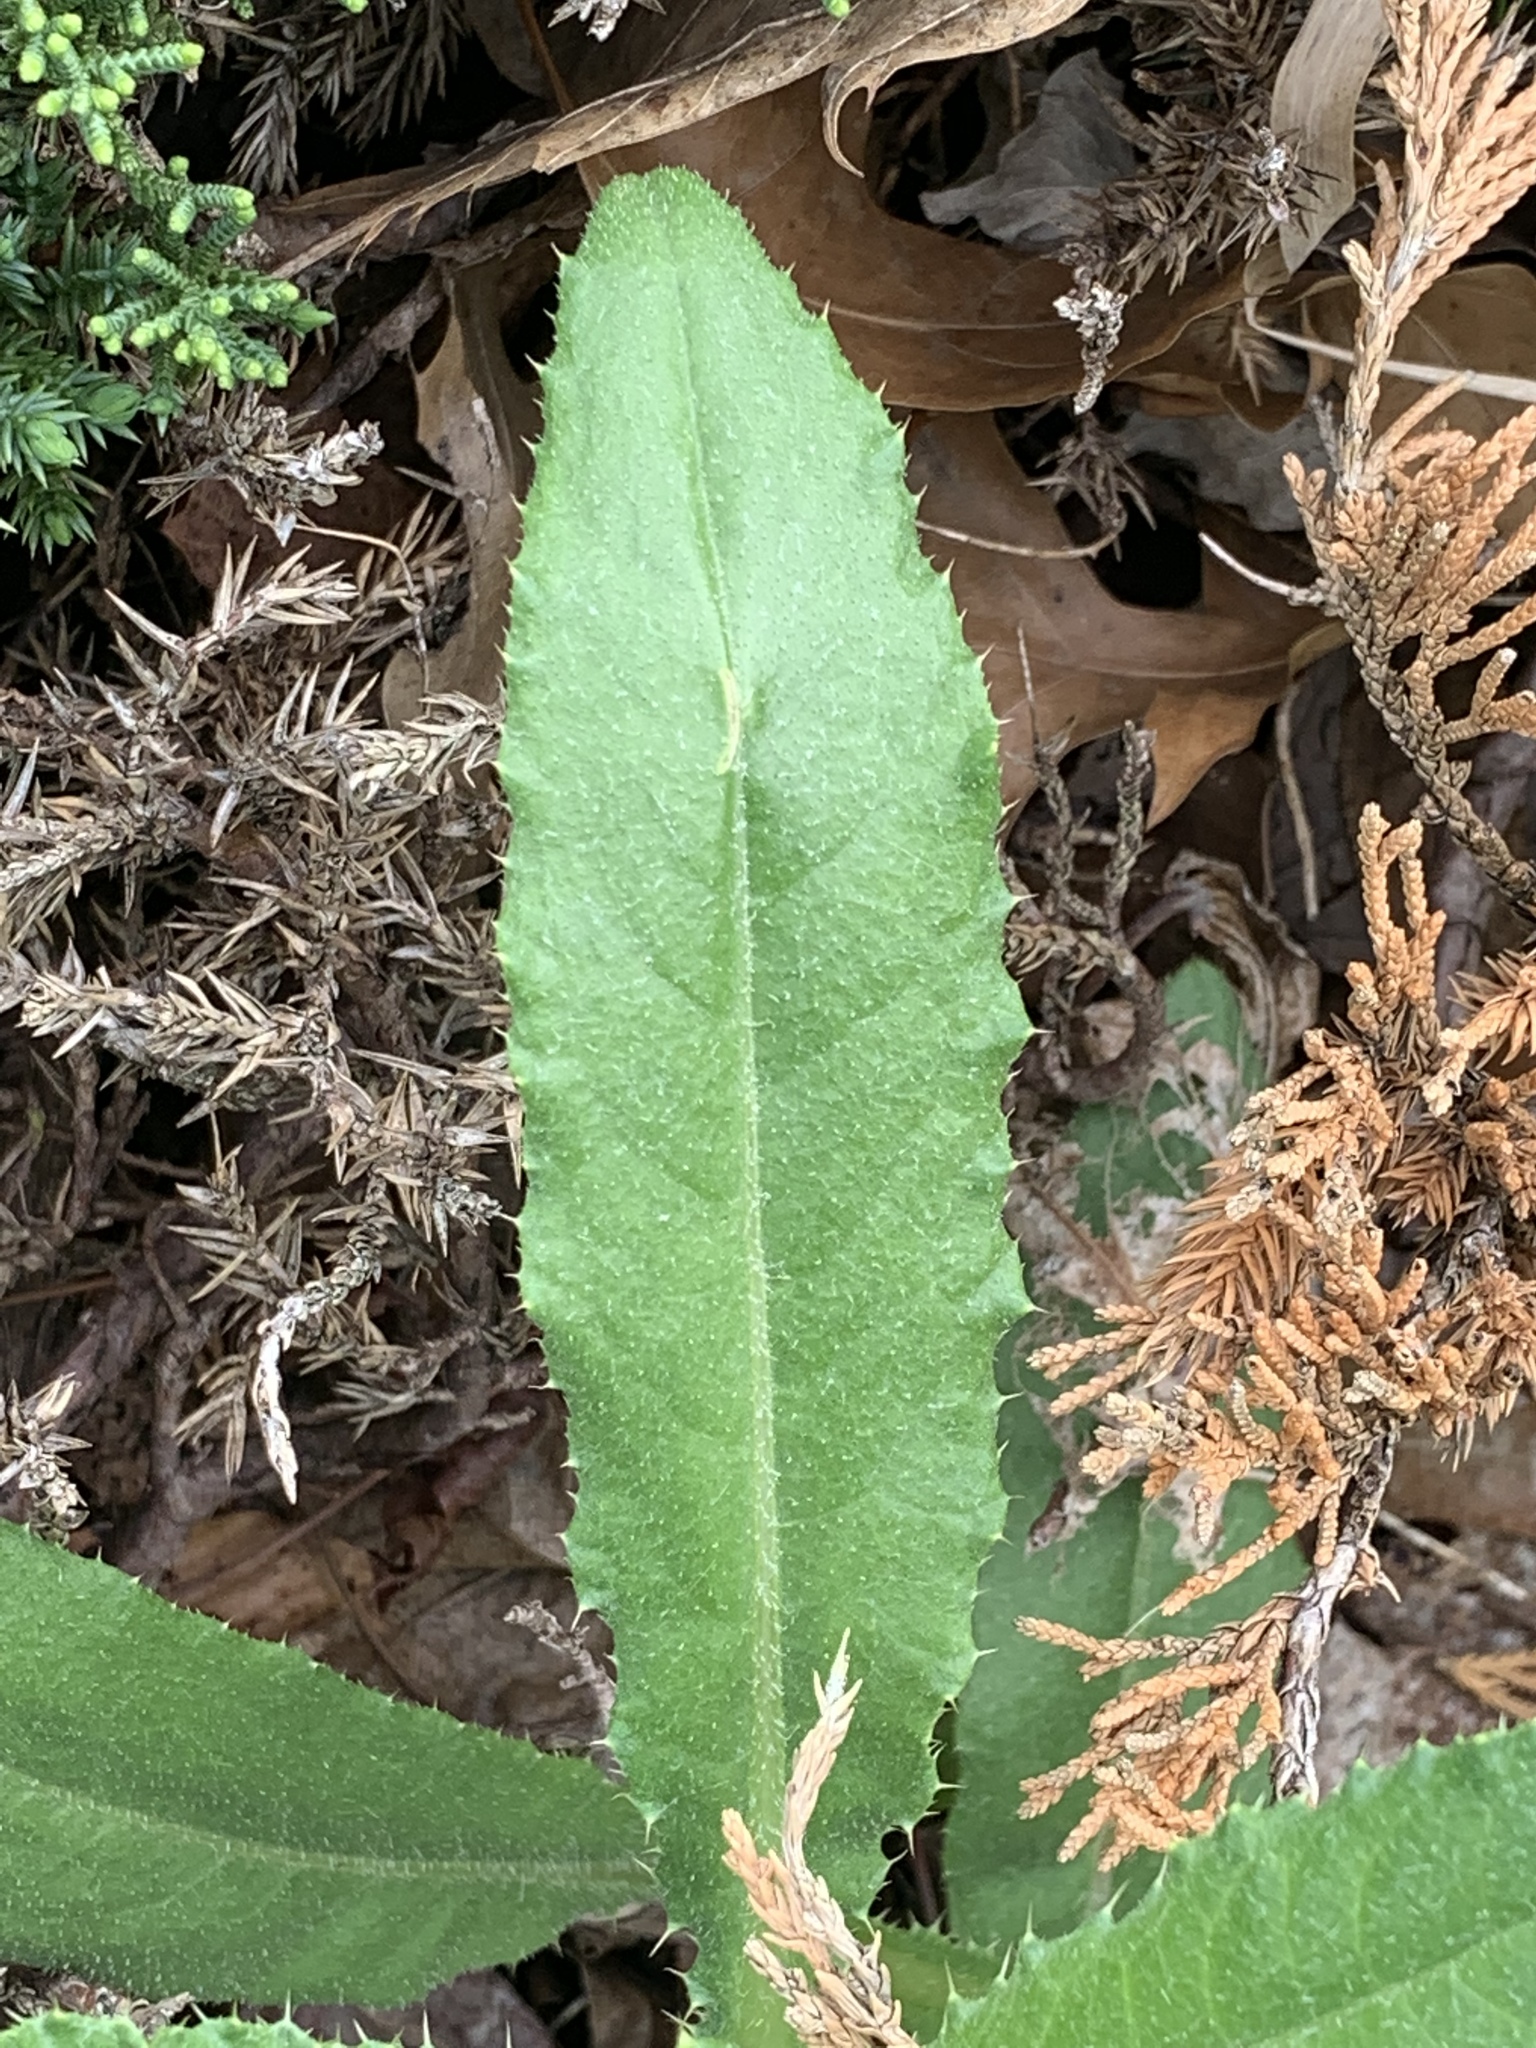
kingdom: Plantae
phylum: Tracheophyta
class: Magnoliopsida
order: Asterales
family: Asteraceae
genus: Cirsium
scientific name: Cirsium arvense
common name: Creeping thistle
